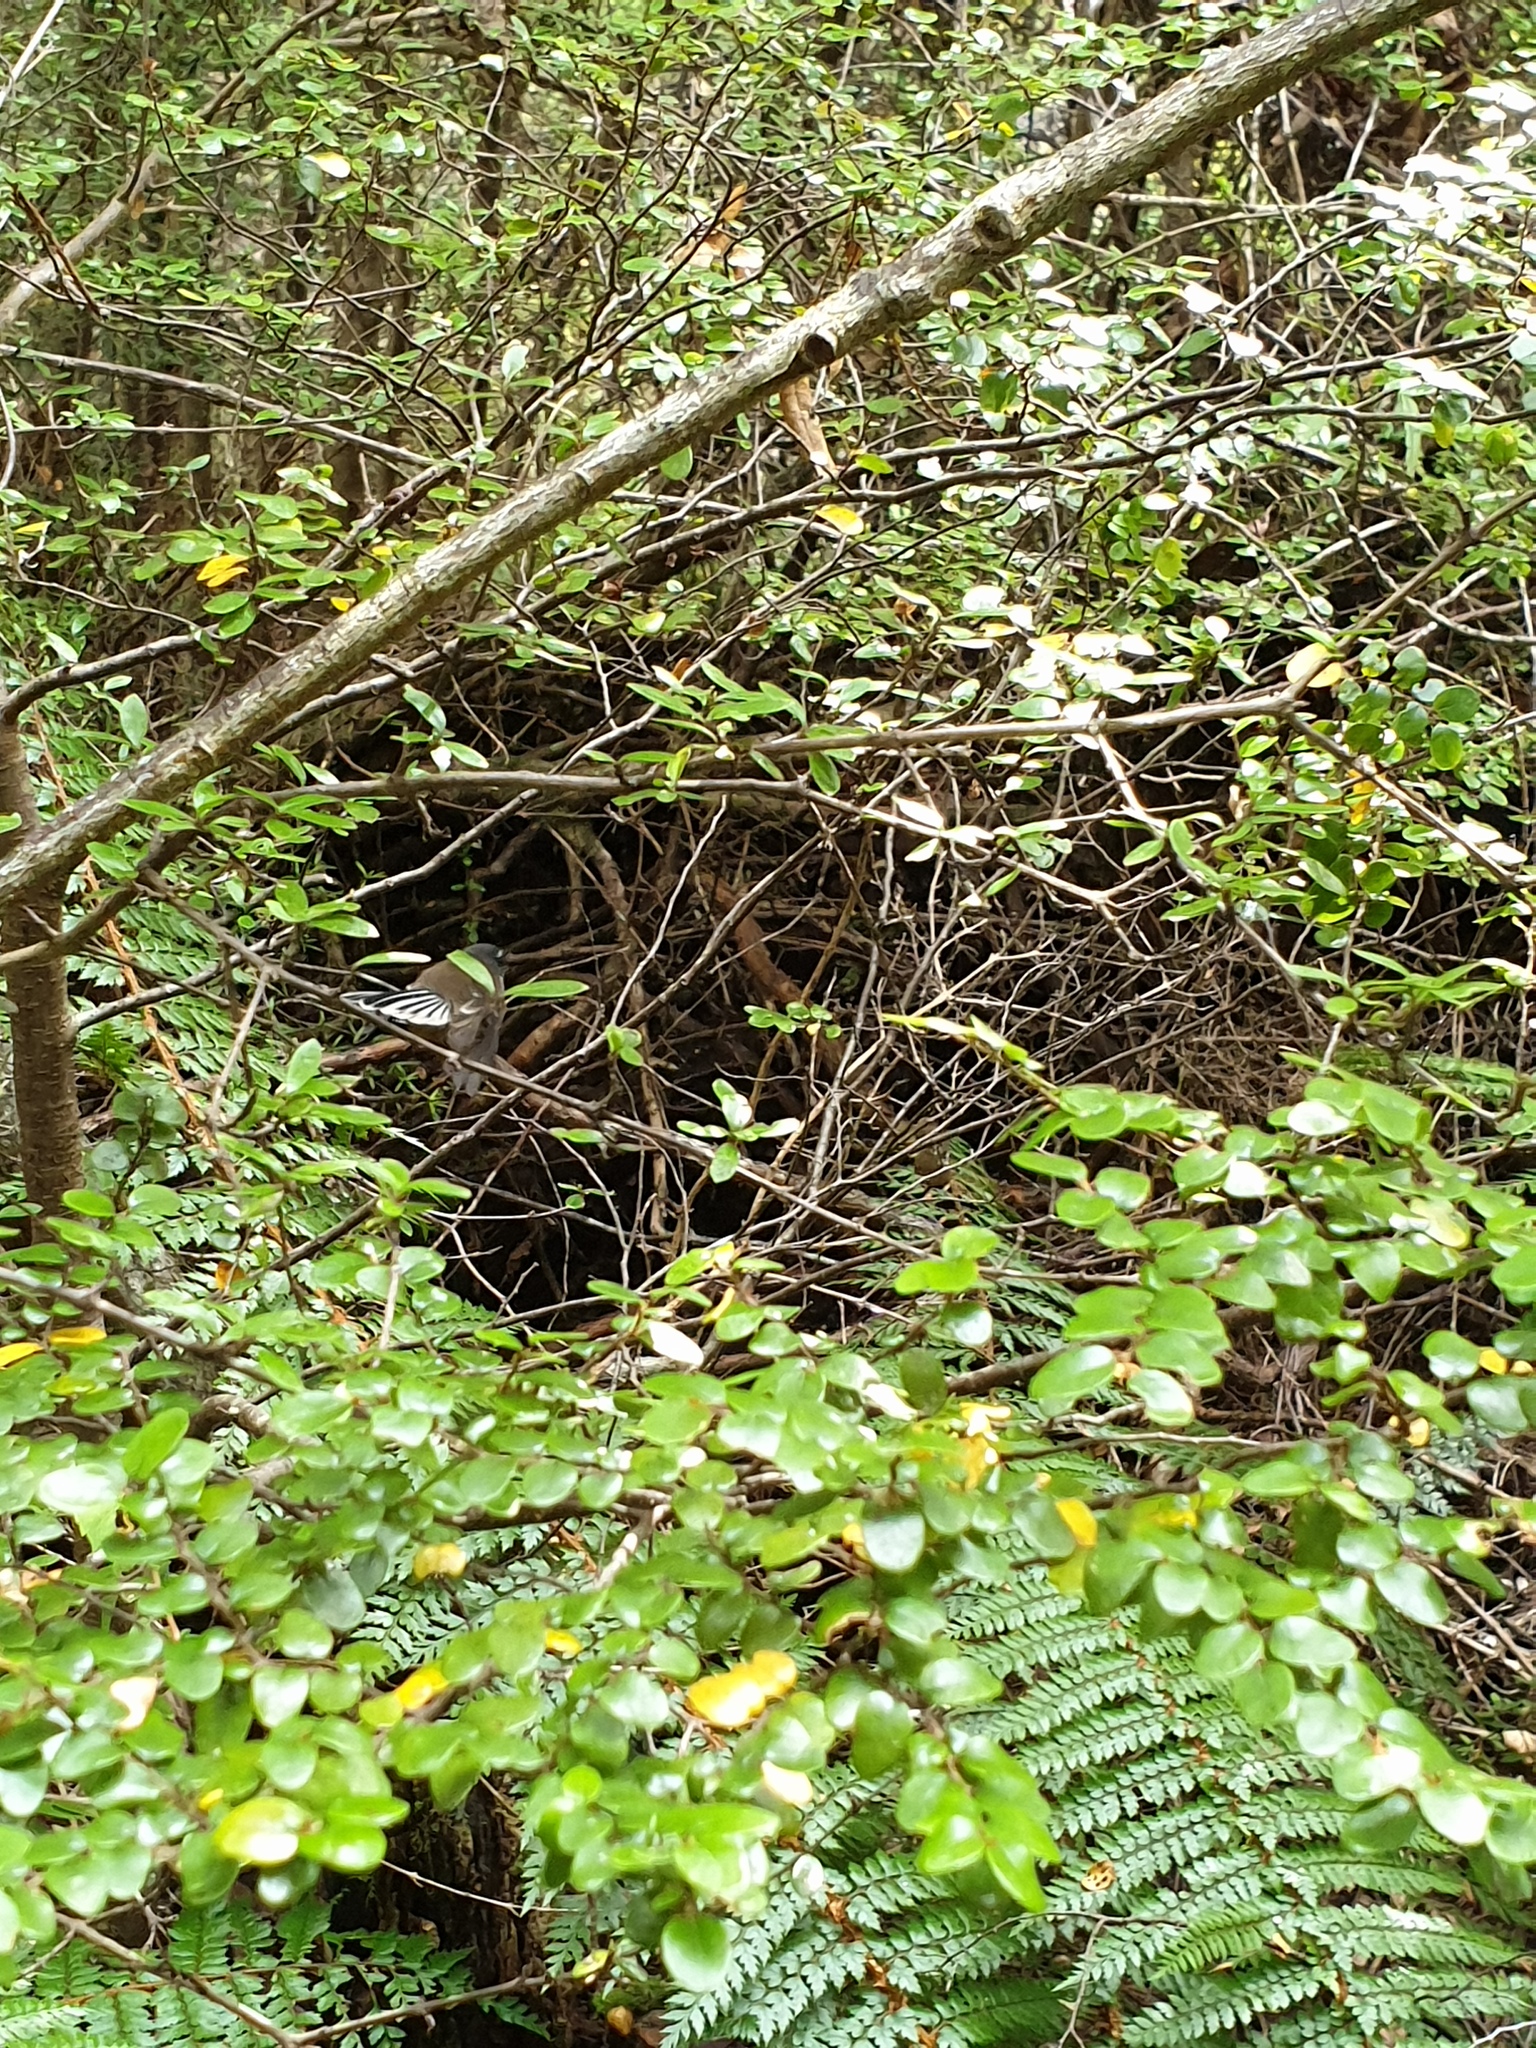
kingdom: Plantae
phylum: Tracheophyta
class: Magnoliopsida
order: Fagales
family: Nothofagaceae
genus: Nothofagus
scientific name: Nothofagus cliffortioides
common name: Mountain beech
